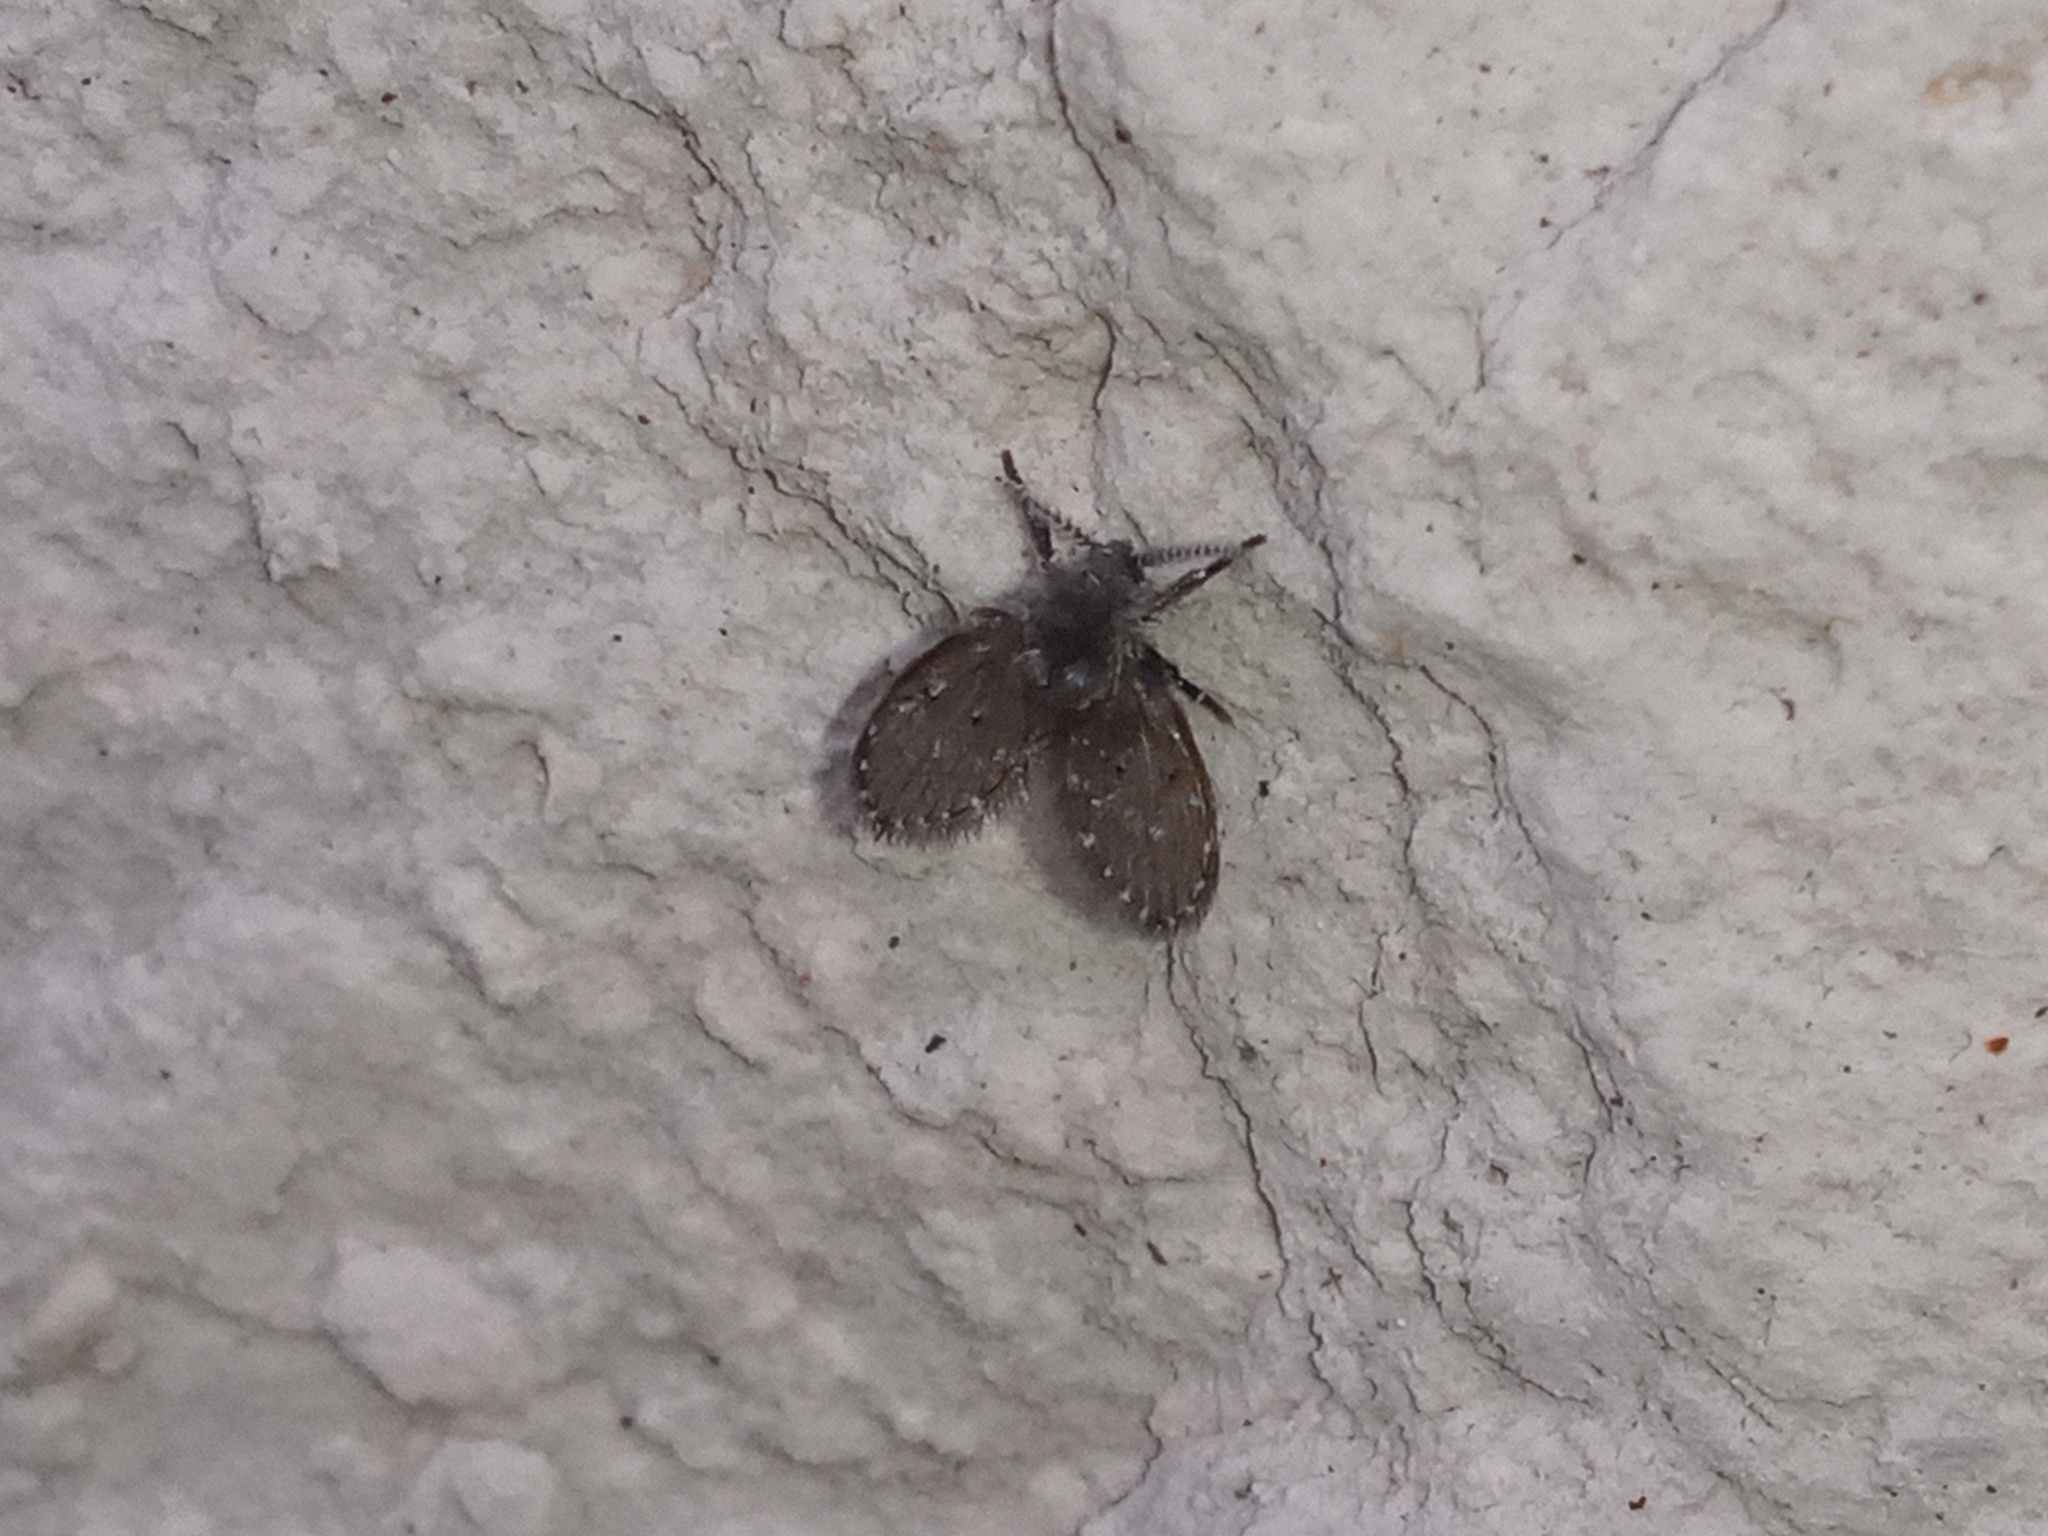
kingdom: Animalia
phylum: Arthropoda
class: Insecta
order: Diptera
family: Psychodidae
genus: Clogmia
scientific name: Clogmia albipunctatus
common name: White-spotted moth fly
